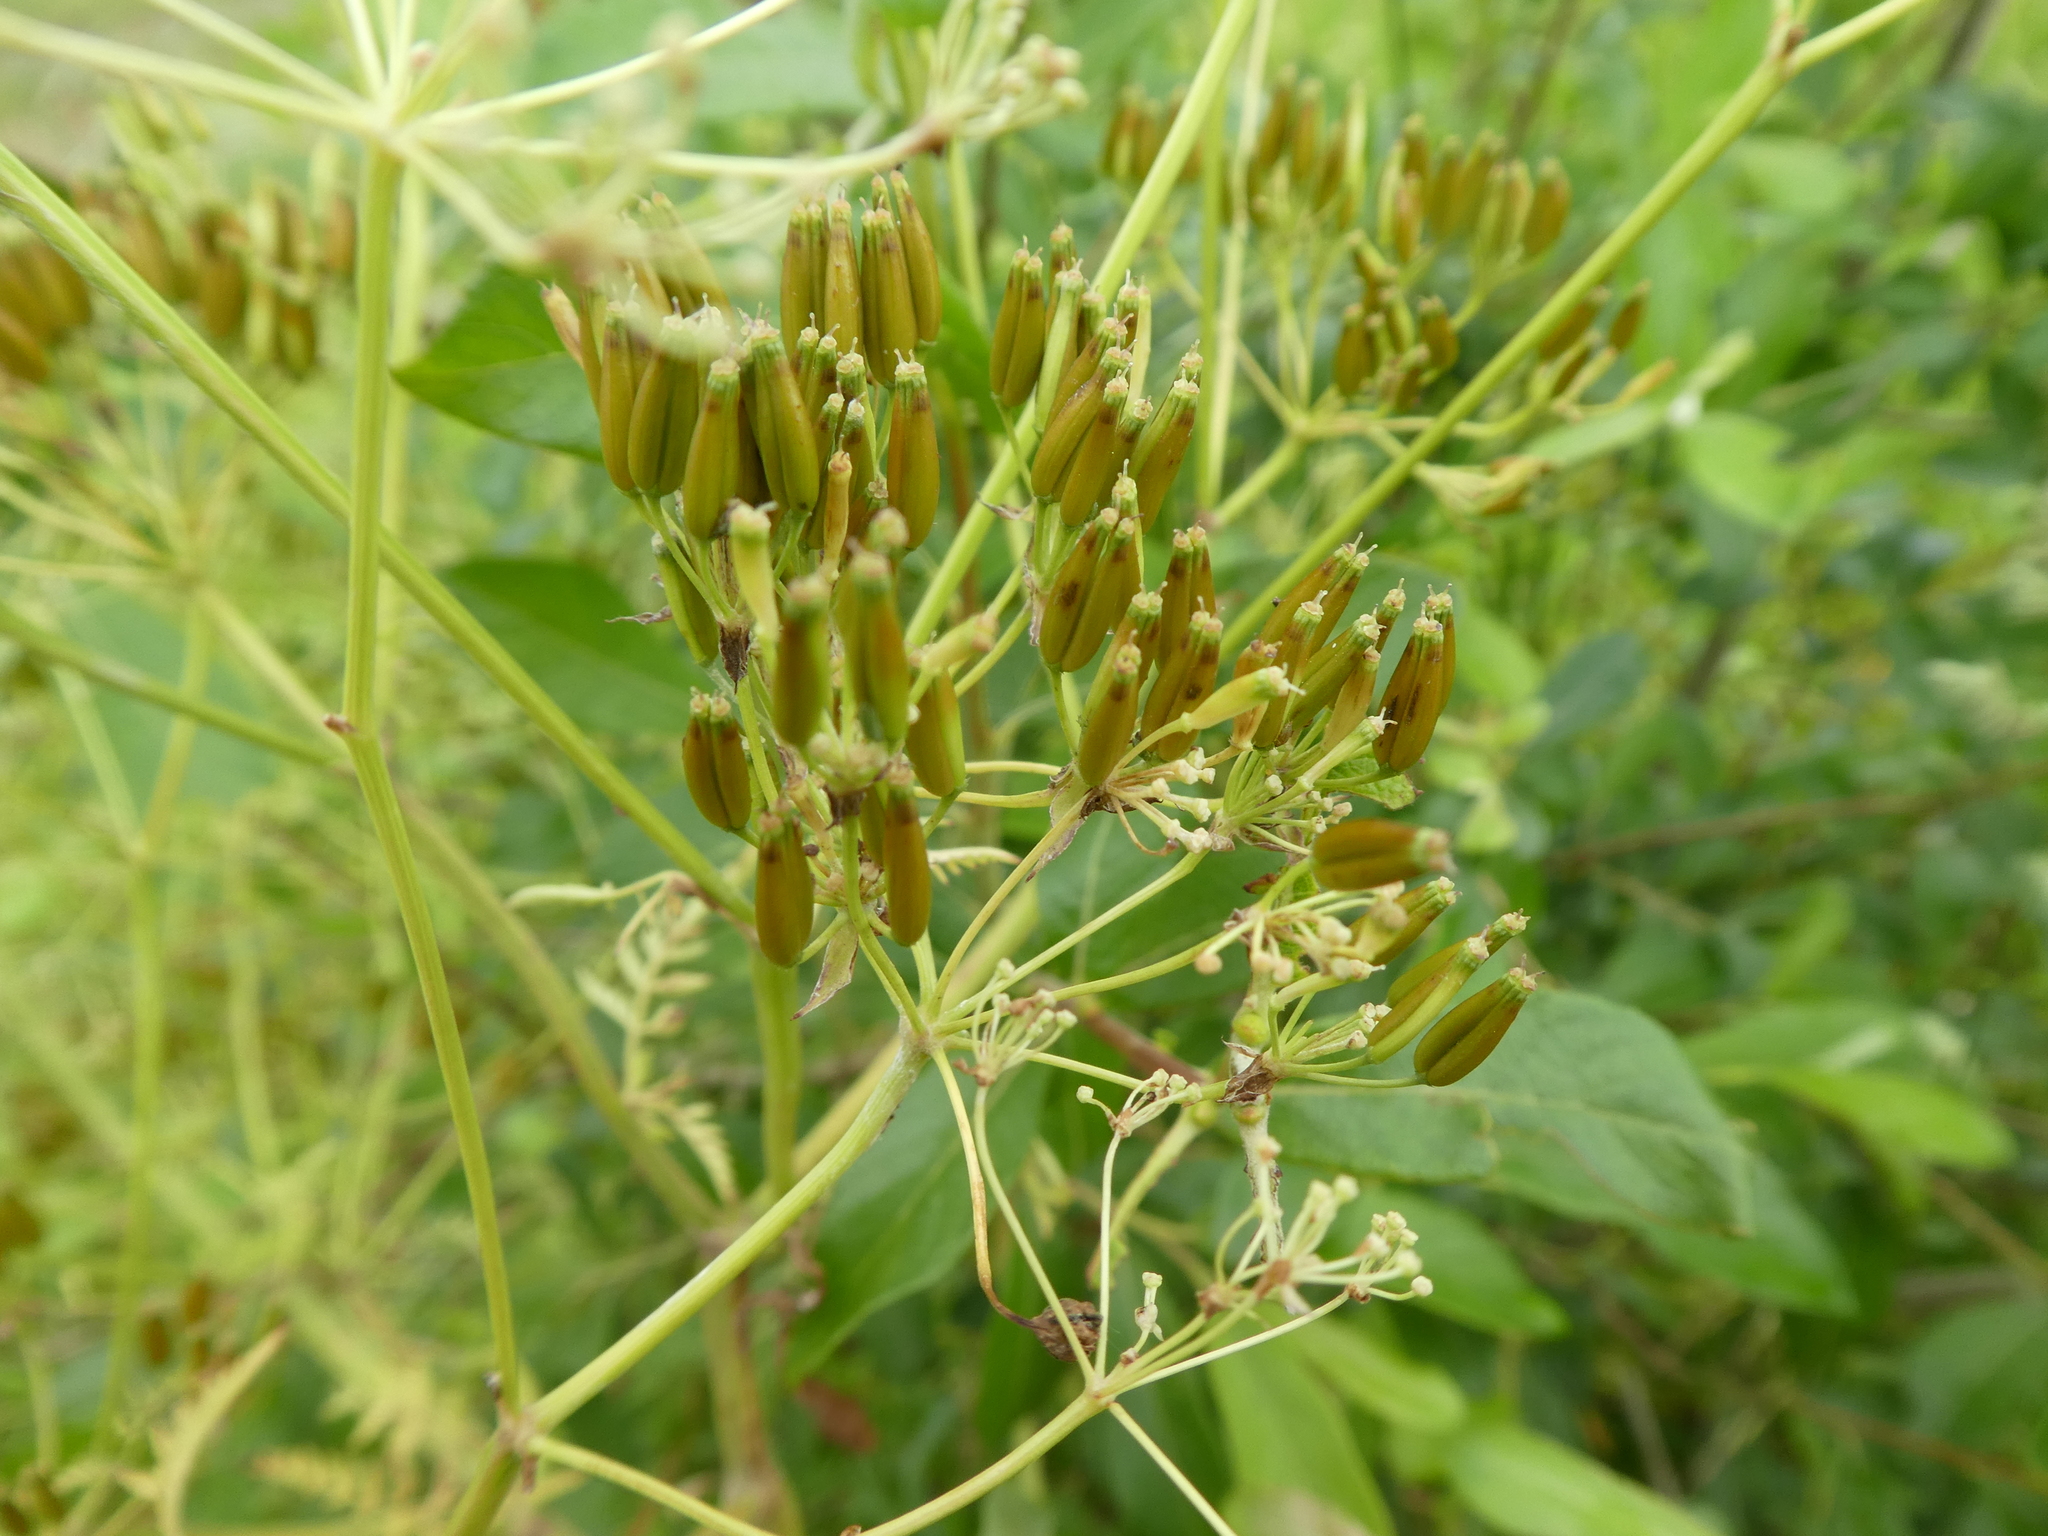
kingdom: Plantae
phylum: Tracheophyta
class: Magnoliopsida
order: Apiales
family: Apiaceae
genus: Anthriscus
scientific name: Anthriscus sylvestris
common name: Cow parsley
